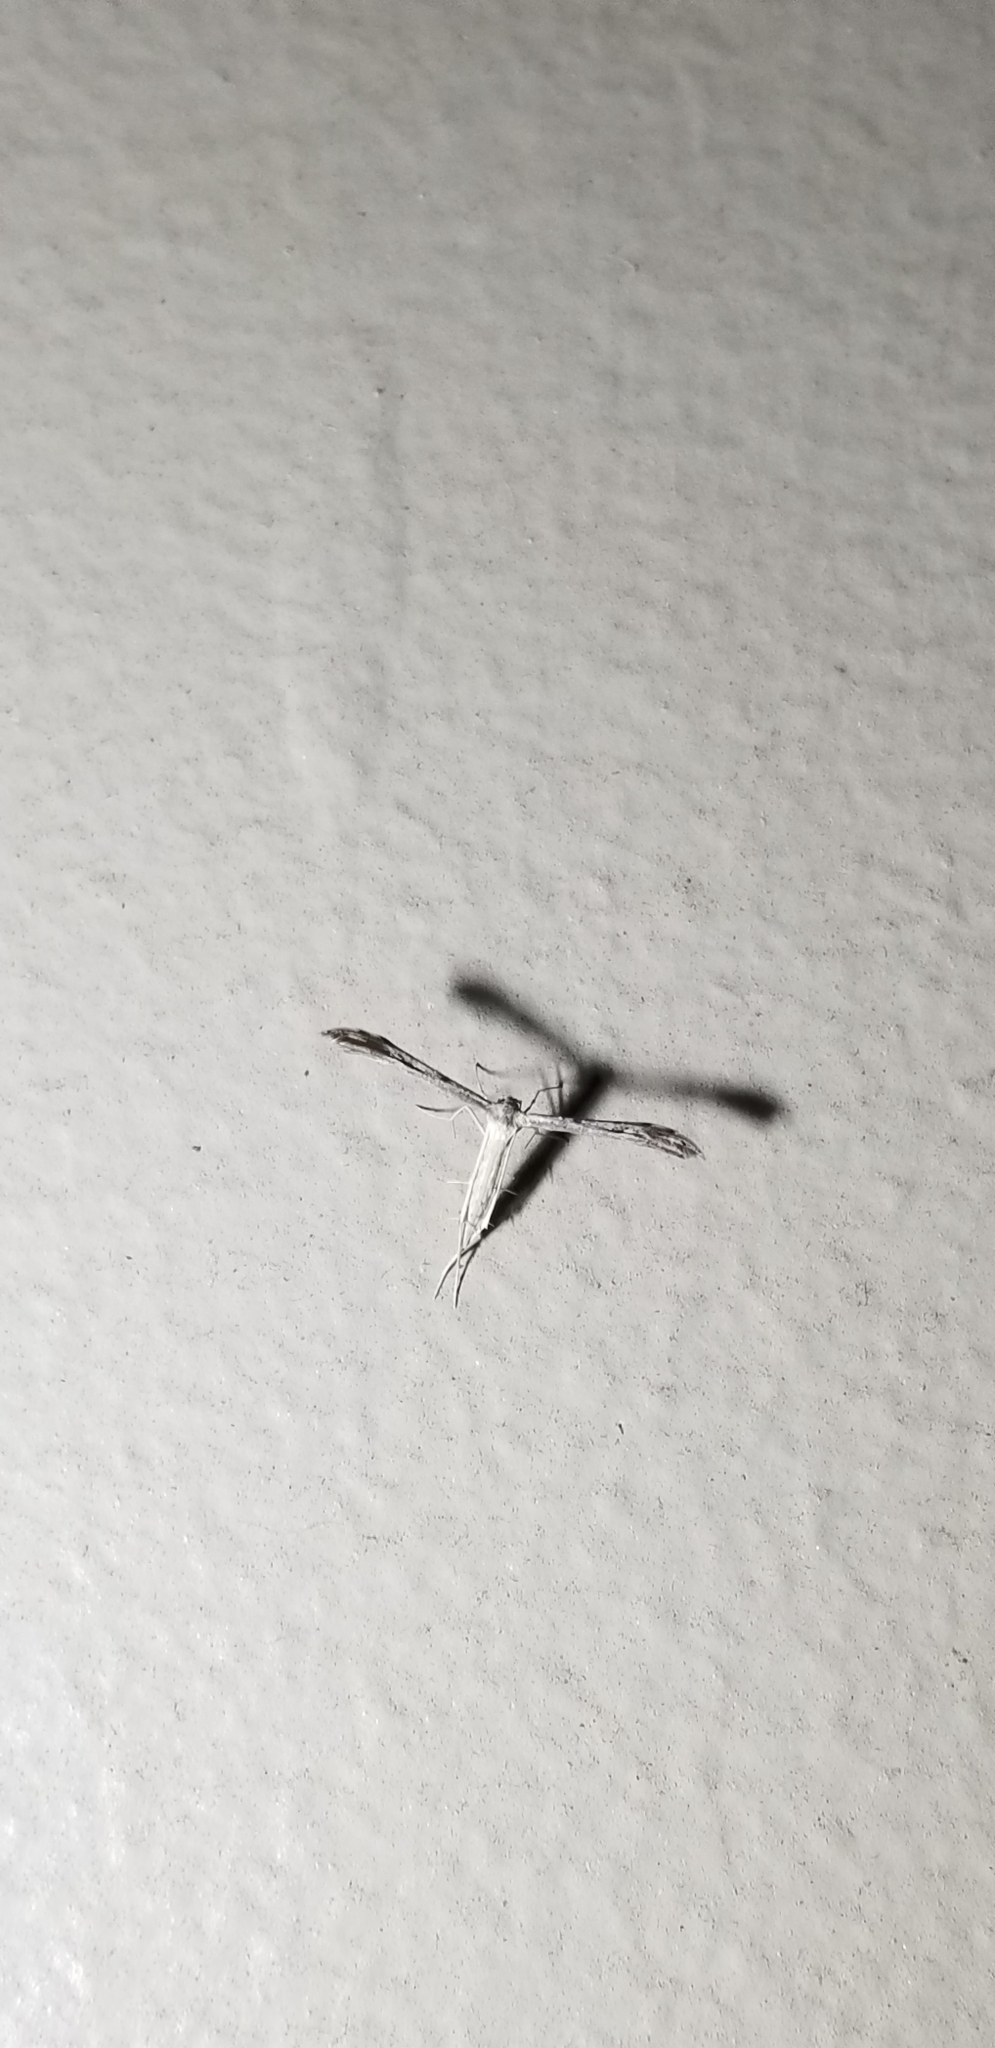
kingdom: Animalia
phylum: Arthropoda
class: Insecta
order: Lepidoptera
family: Pterophoridae
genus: Pselnophorus
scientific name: Pselnophorus belfragei
